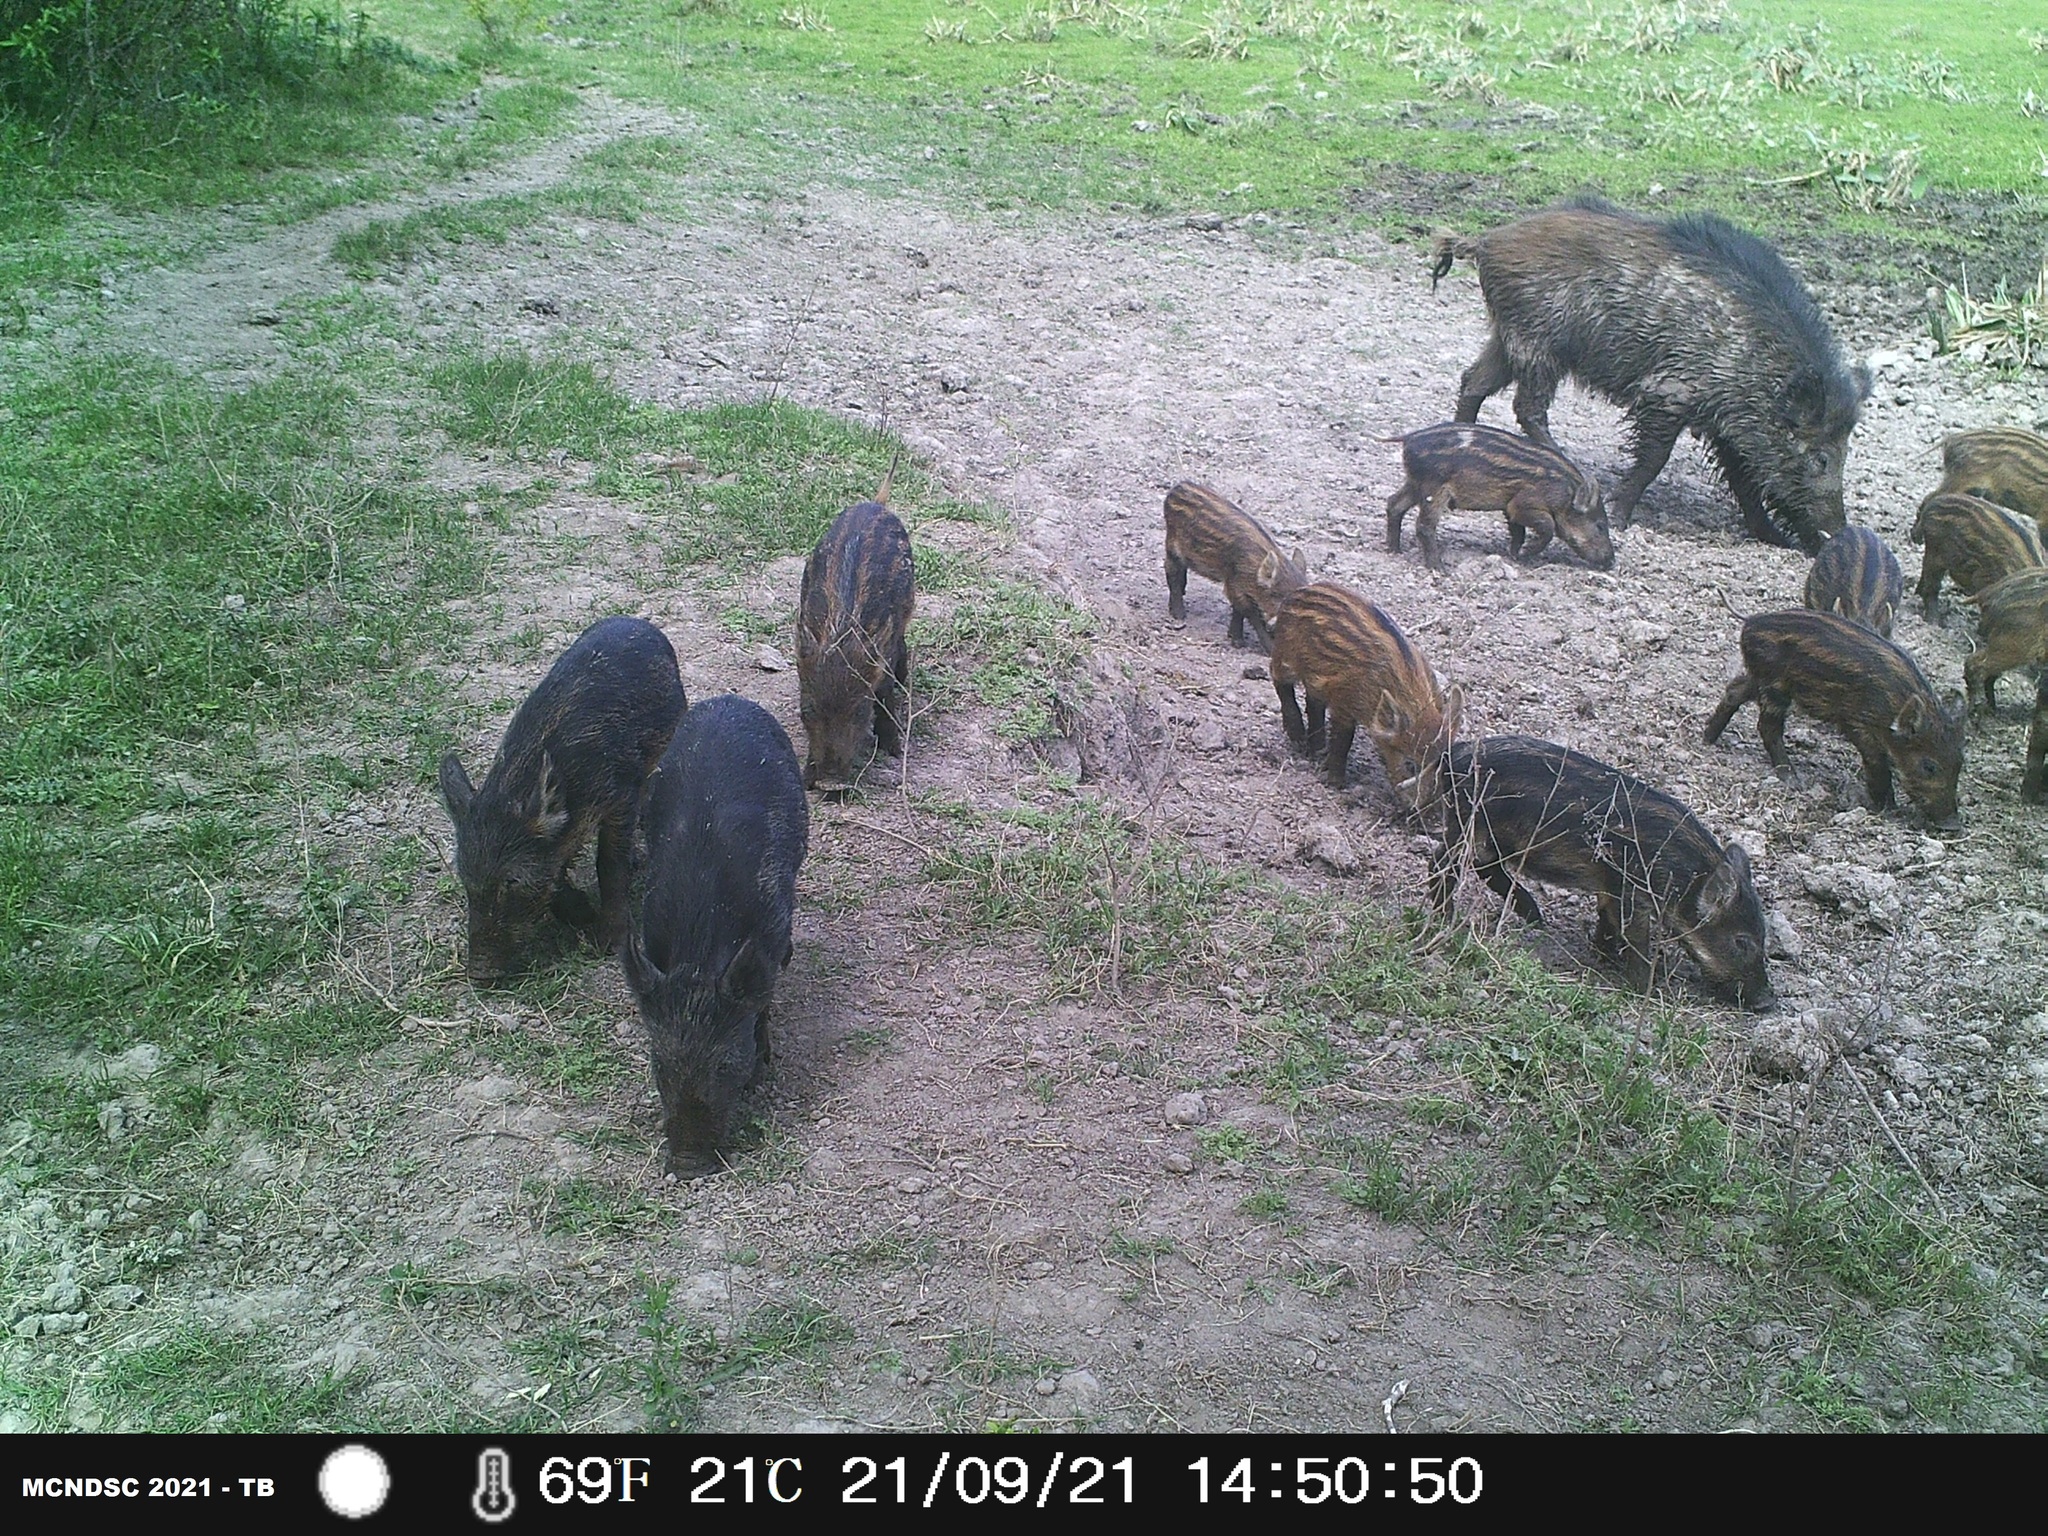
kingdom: Animalia
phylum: Chordata
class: Mammalia
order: Artiodactyla
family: Suidae
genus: Sus
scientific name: Sus scrofa
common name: Wild boar
